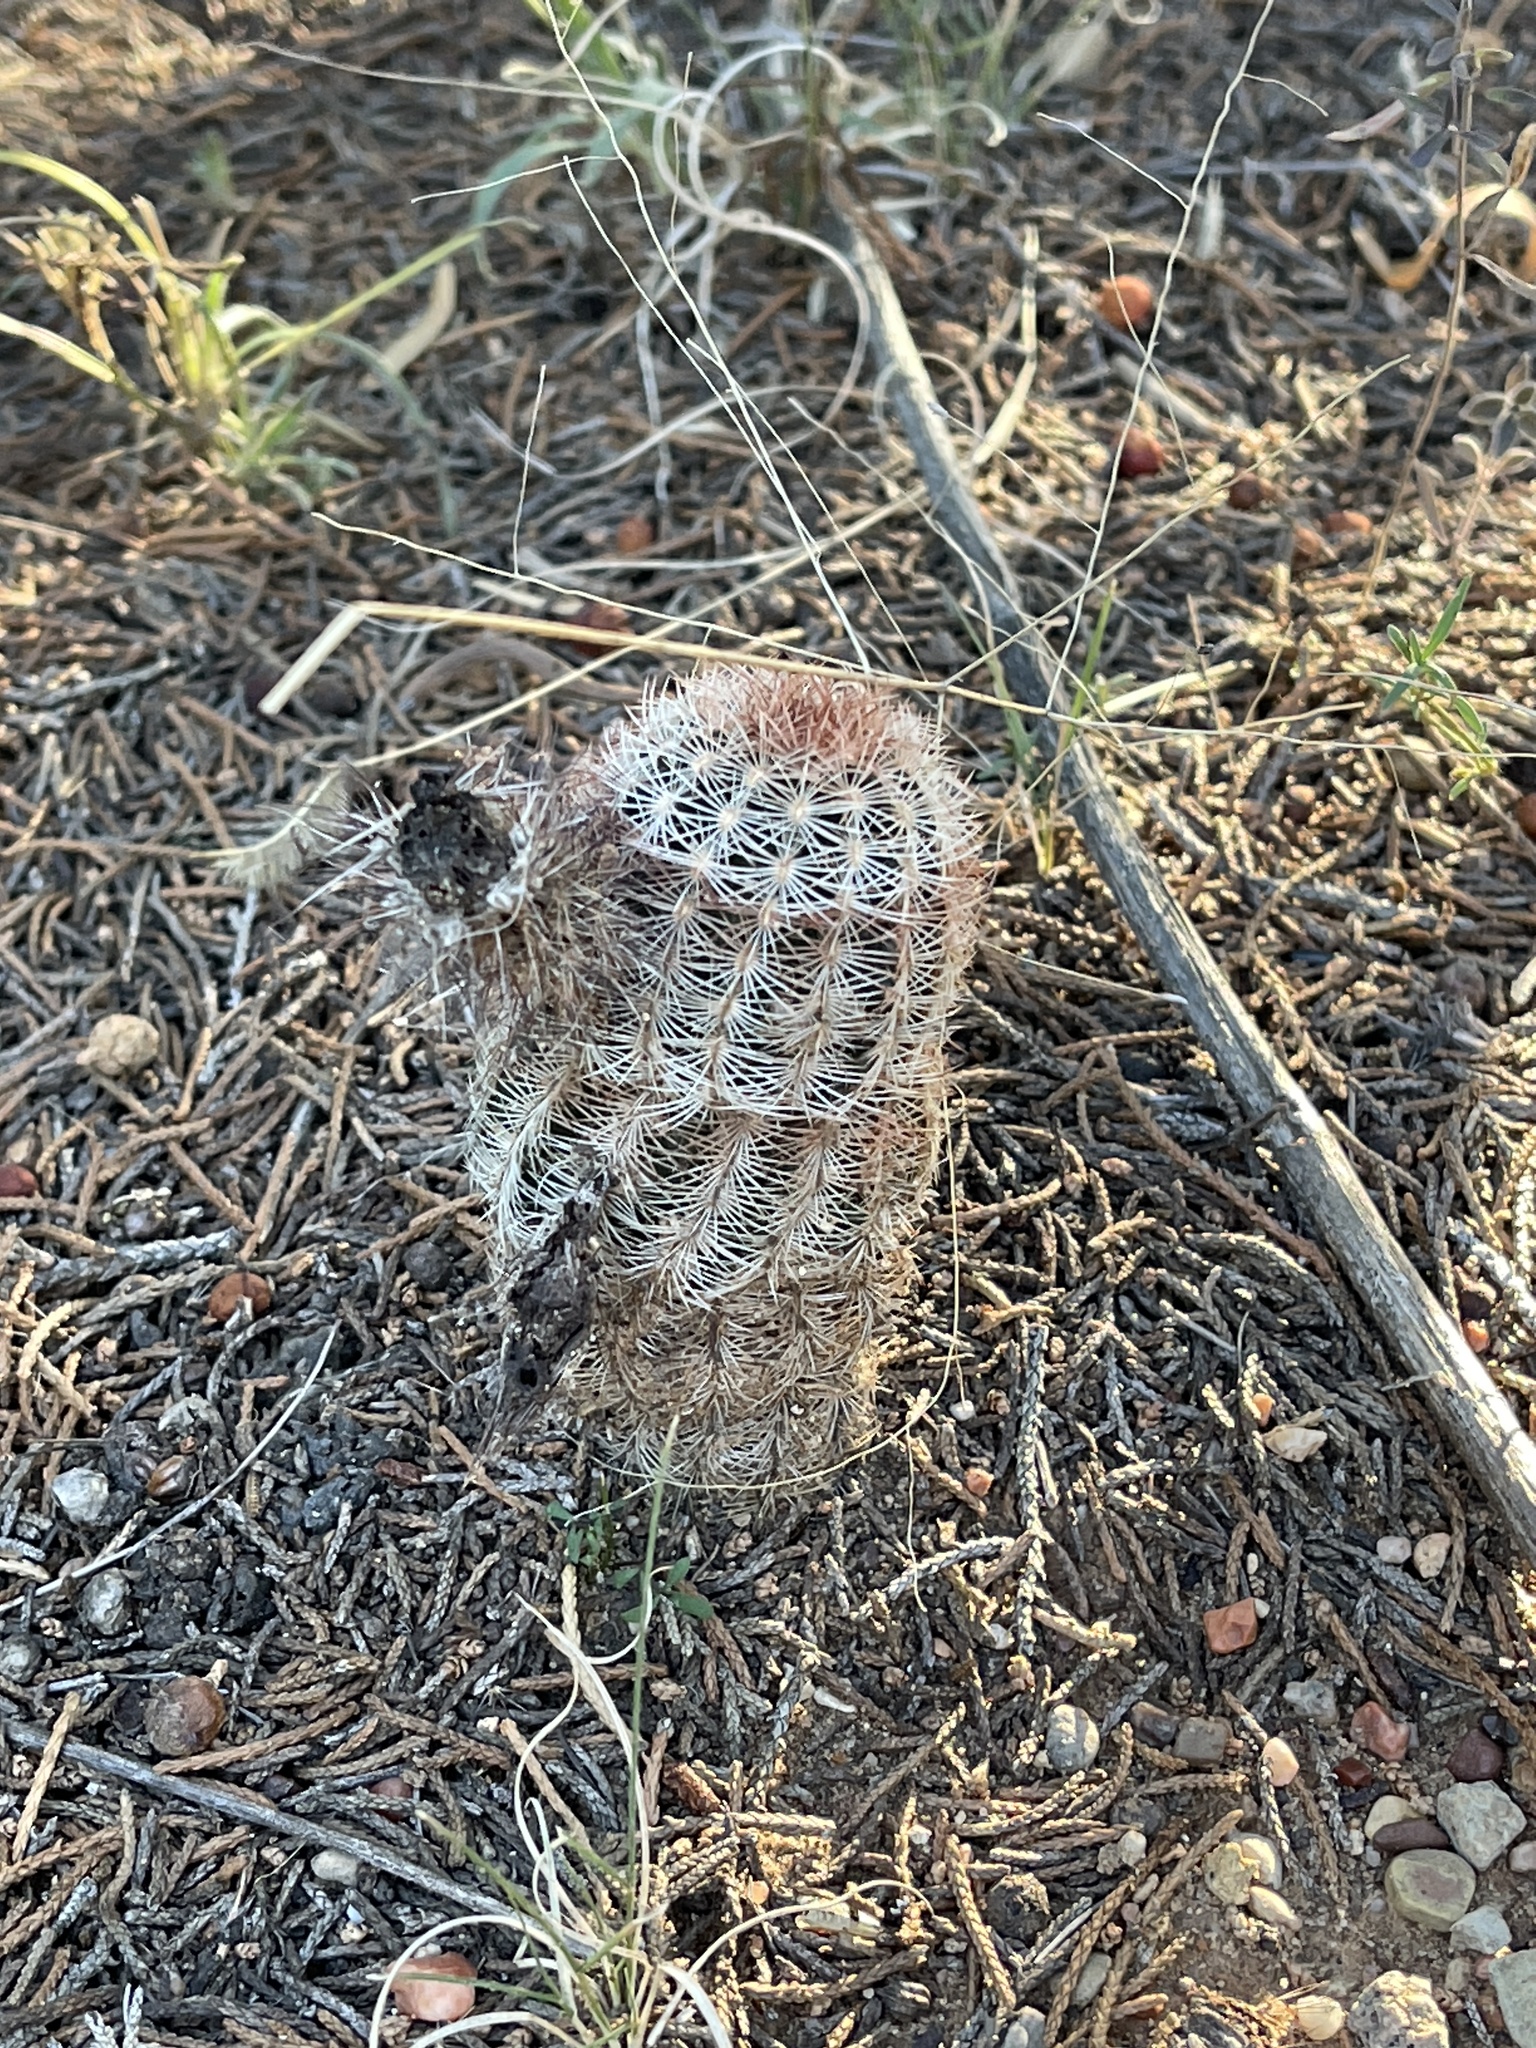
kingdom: Plantae
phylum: Tracheophyta
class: Magnoliopsida
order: Caryophyllales
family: Cactaceae
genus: Echinocereus
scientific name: Echinocereus reichenbachii
